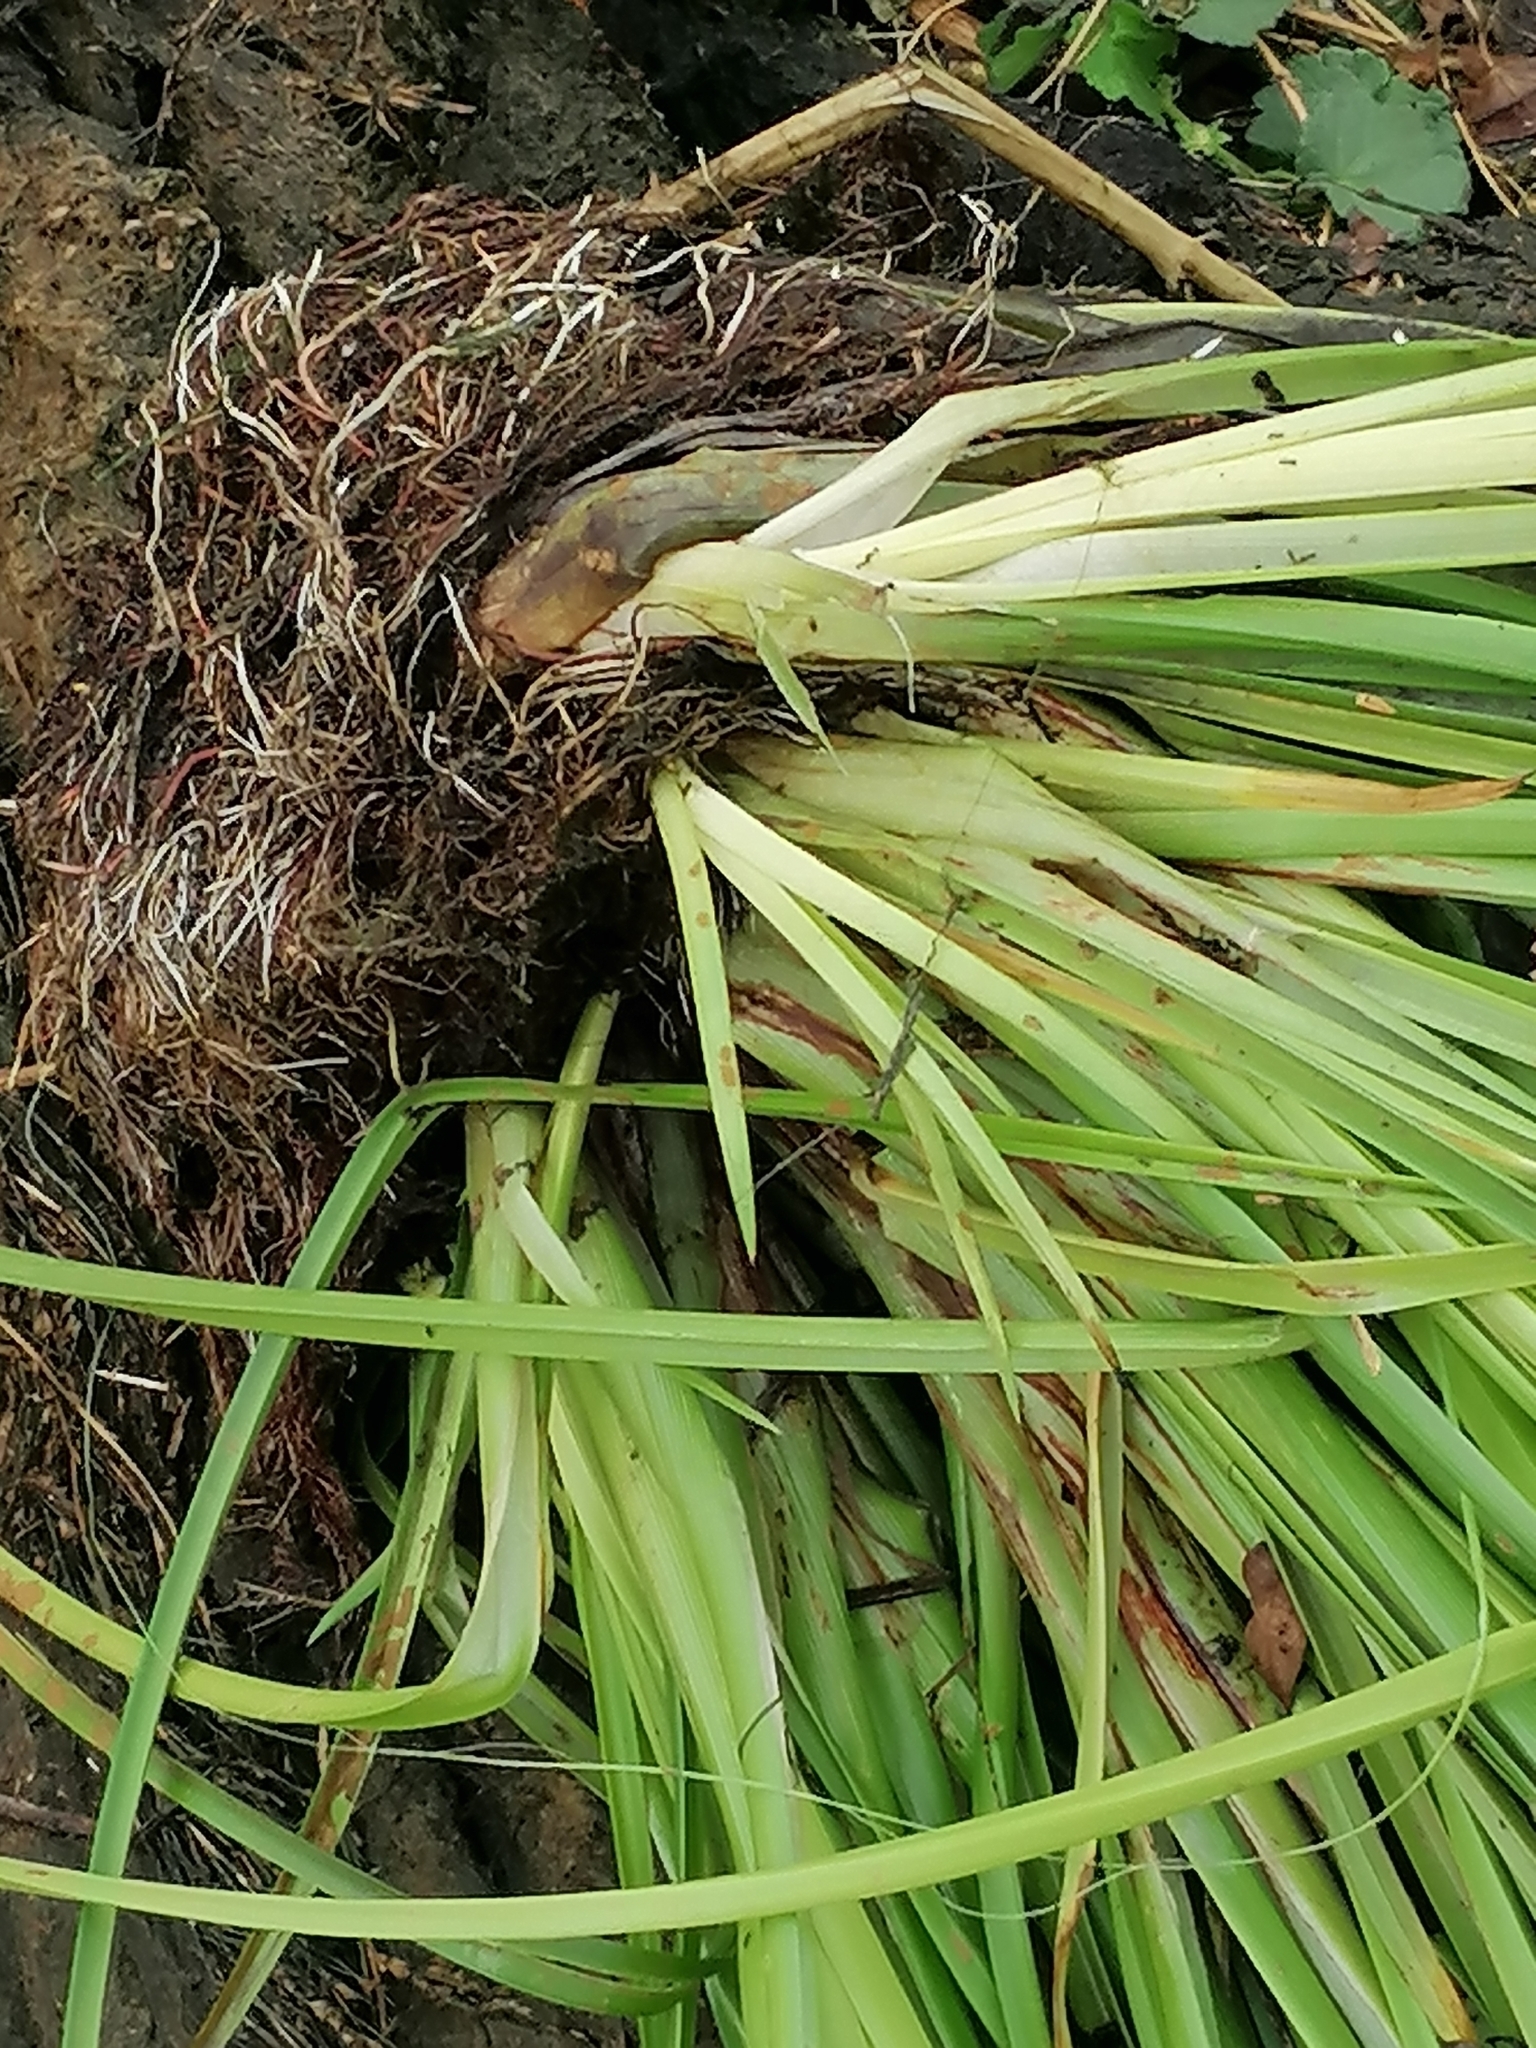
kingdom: Plantae
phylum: Tracheophyta
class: Liliopsida
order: Poales
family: Cyperaceae
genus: Cyperus
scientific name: Cyperus eragrostis
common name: Tall flatsedge
